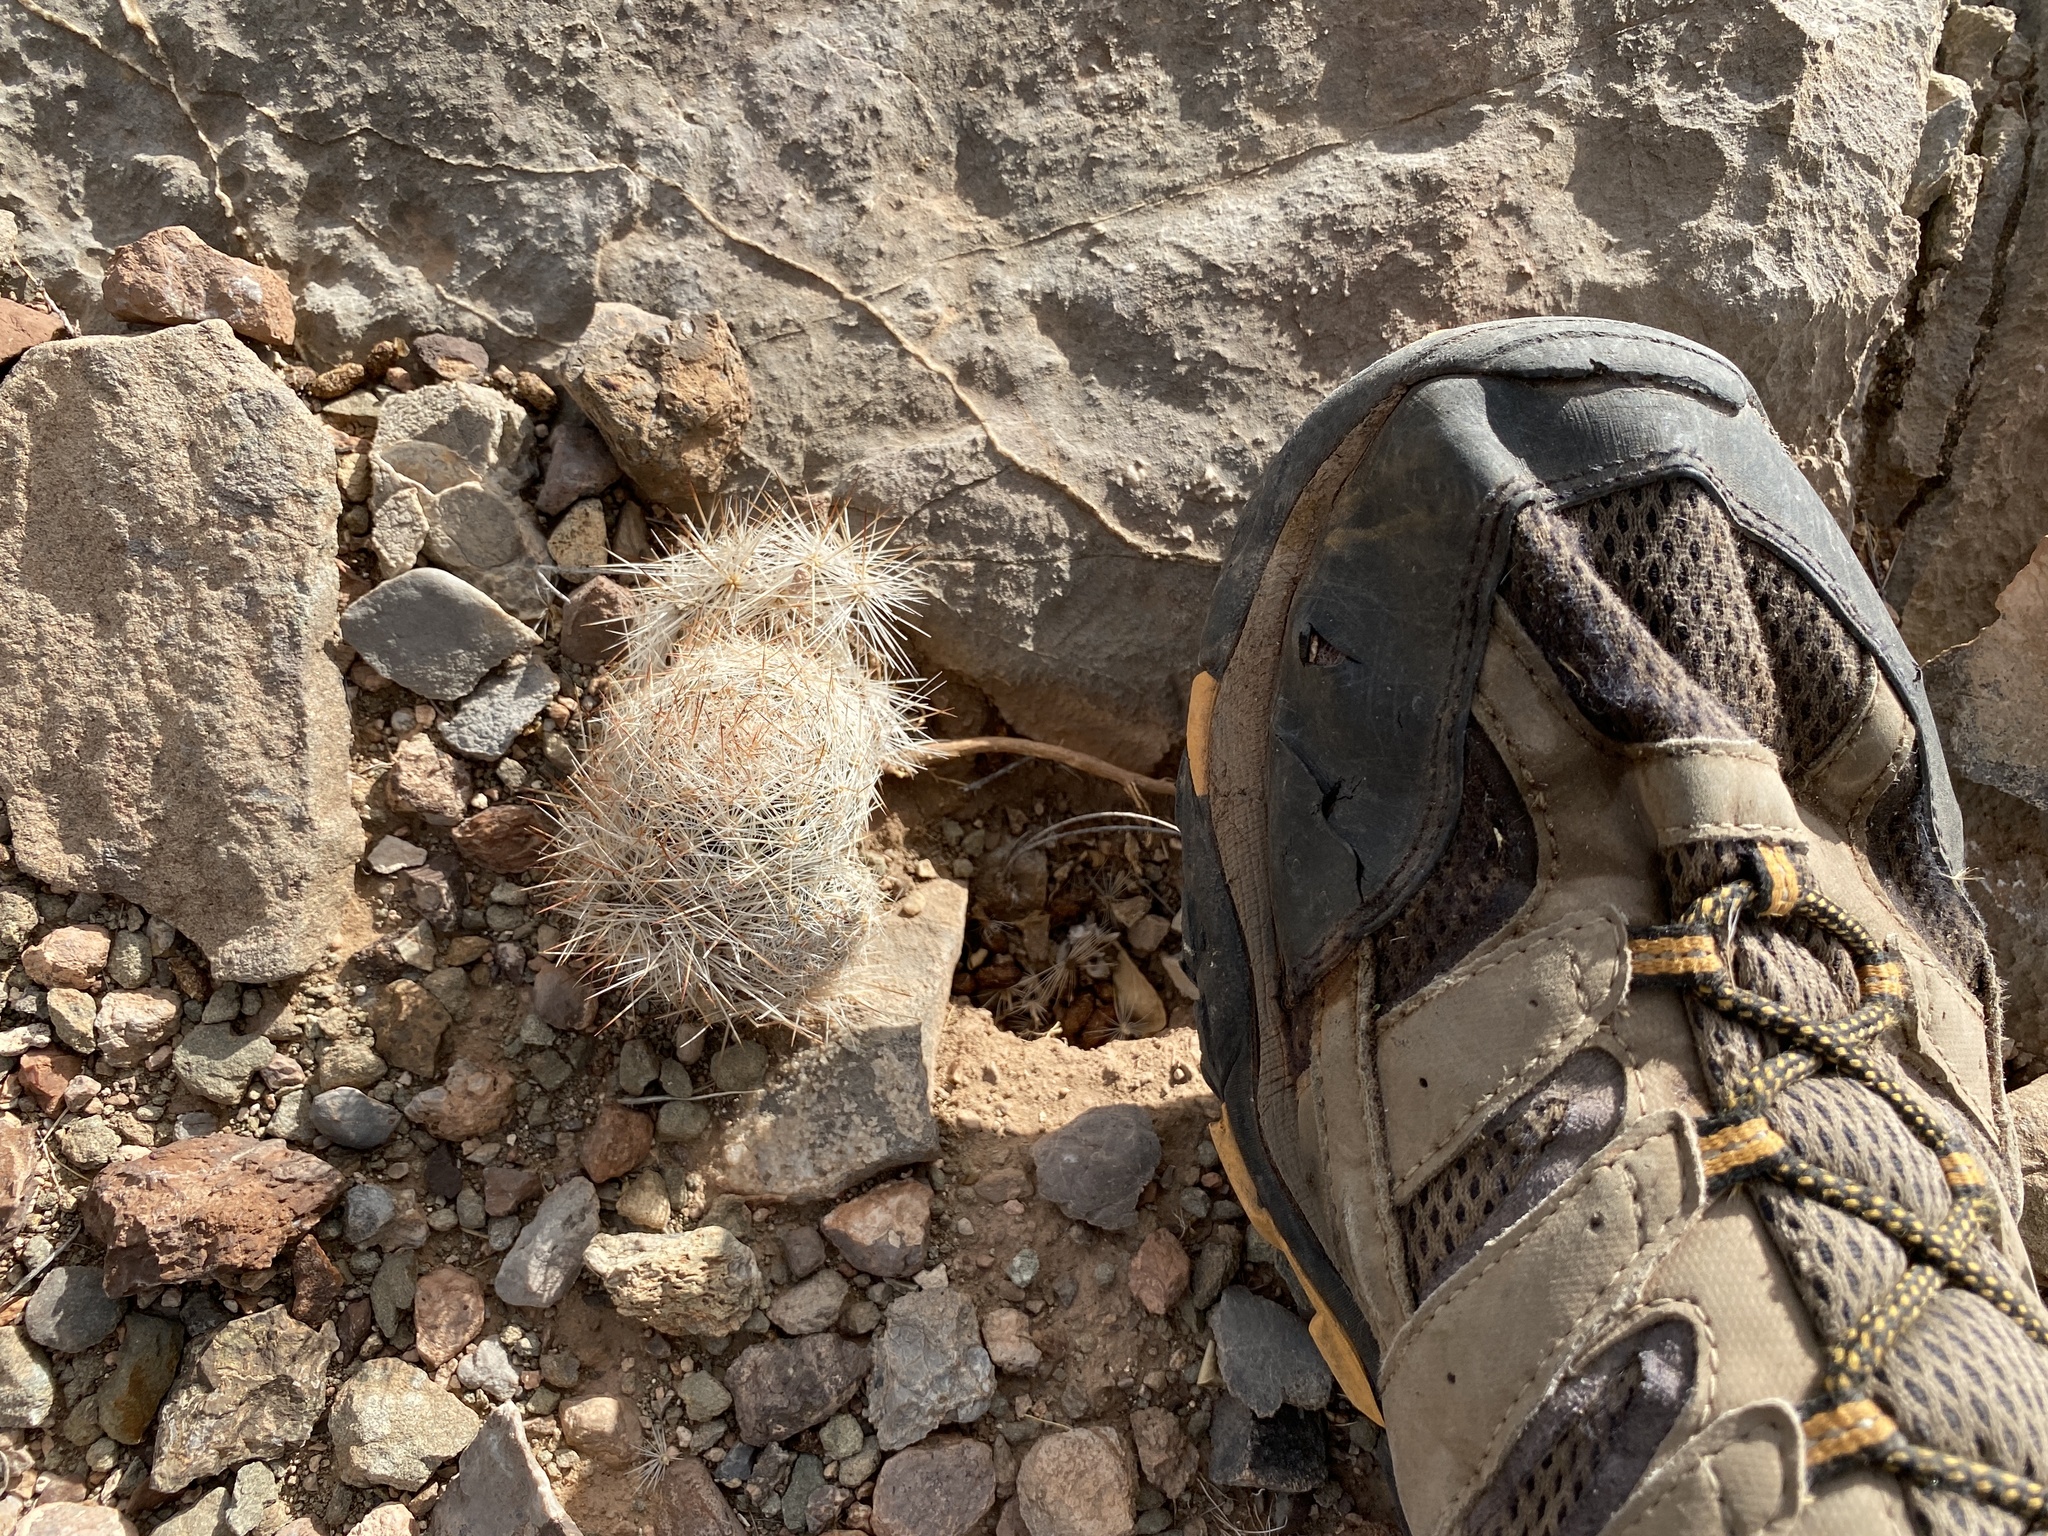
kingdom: Plantae
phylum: Tracheophyta
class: Magnoliopsida
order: Caryophyllales
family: Cactaceae
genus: Pelecyphora
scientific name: Pelecyphora vivipara
